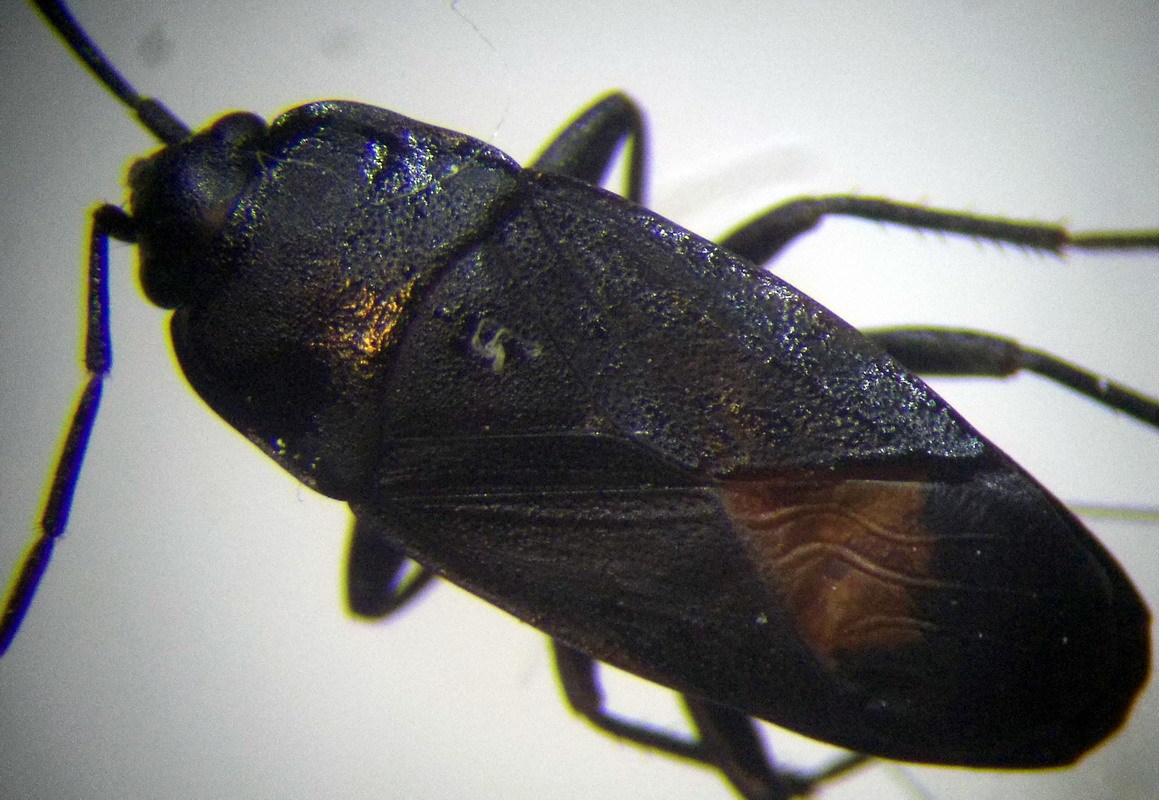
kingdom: Animalia
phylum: Arthropoda
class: Insecta
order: Hemiptera
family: Rhyparochromidae
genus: Aphanus
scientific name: Aphanus rolandri
